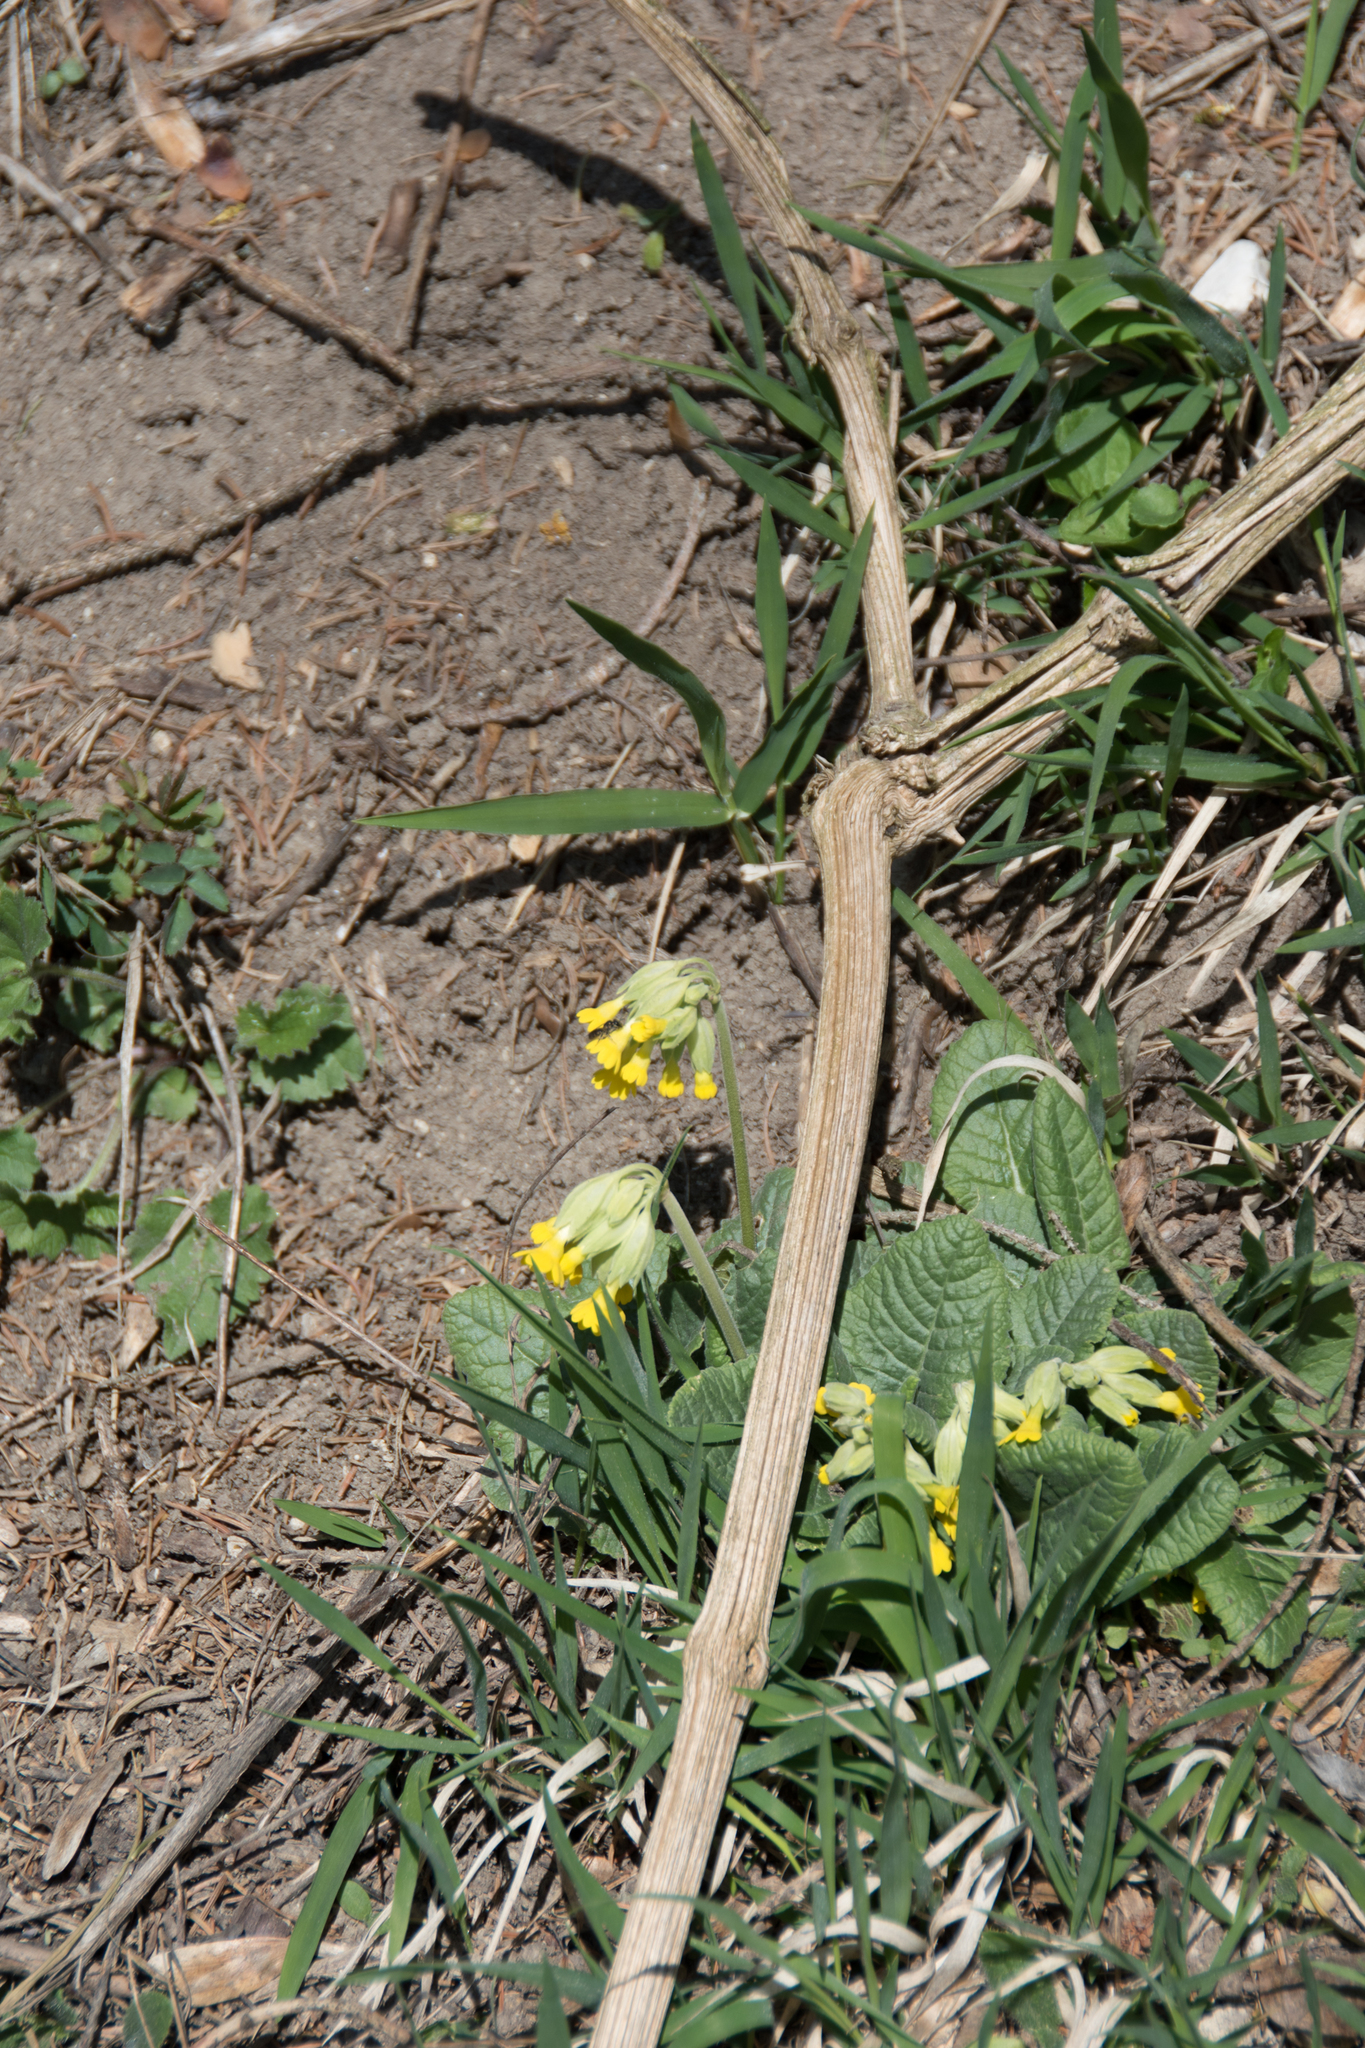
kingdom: Plantae
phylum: Tracheophyta
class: Magnoliopsida
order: Ericales
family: Primulaceae
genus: Primula
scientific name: Primula veris
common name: Cowslip
